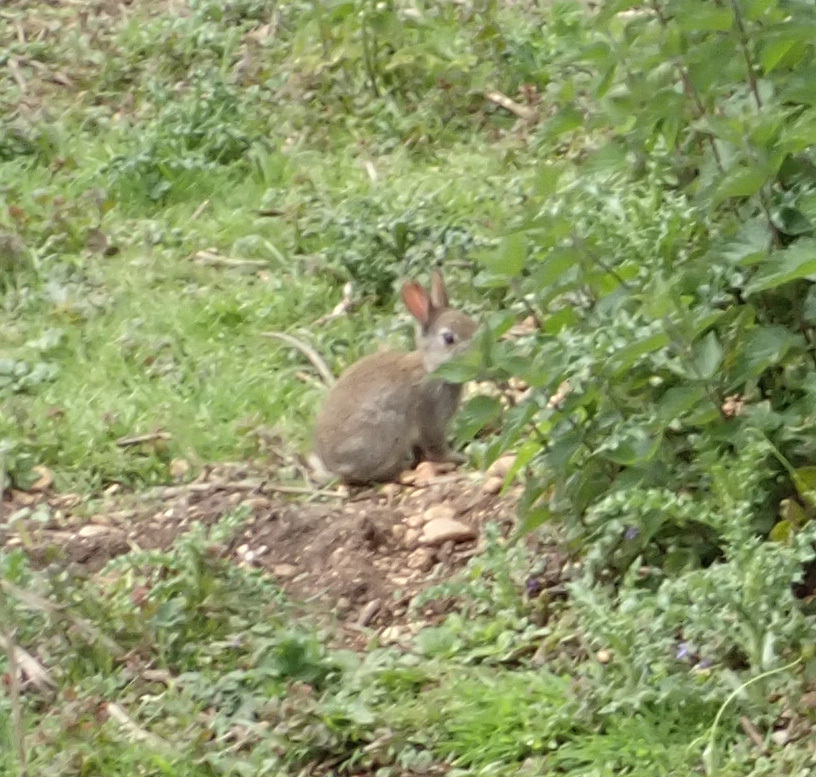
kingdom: Animalia
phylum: Chordata
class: Mammalia
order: Lagomorpha
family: Leporidae
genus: Oryctolagus
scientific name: Oryctolagus cuniculus
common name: European rabbit
